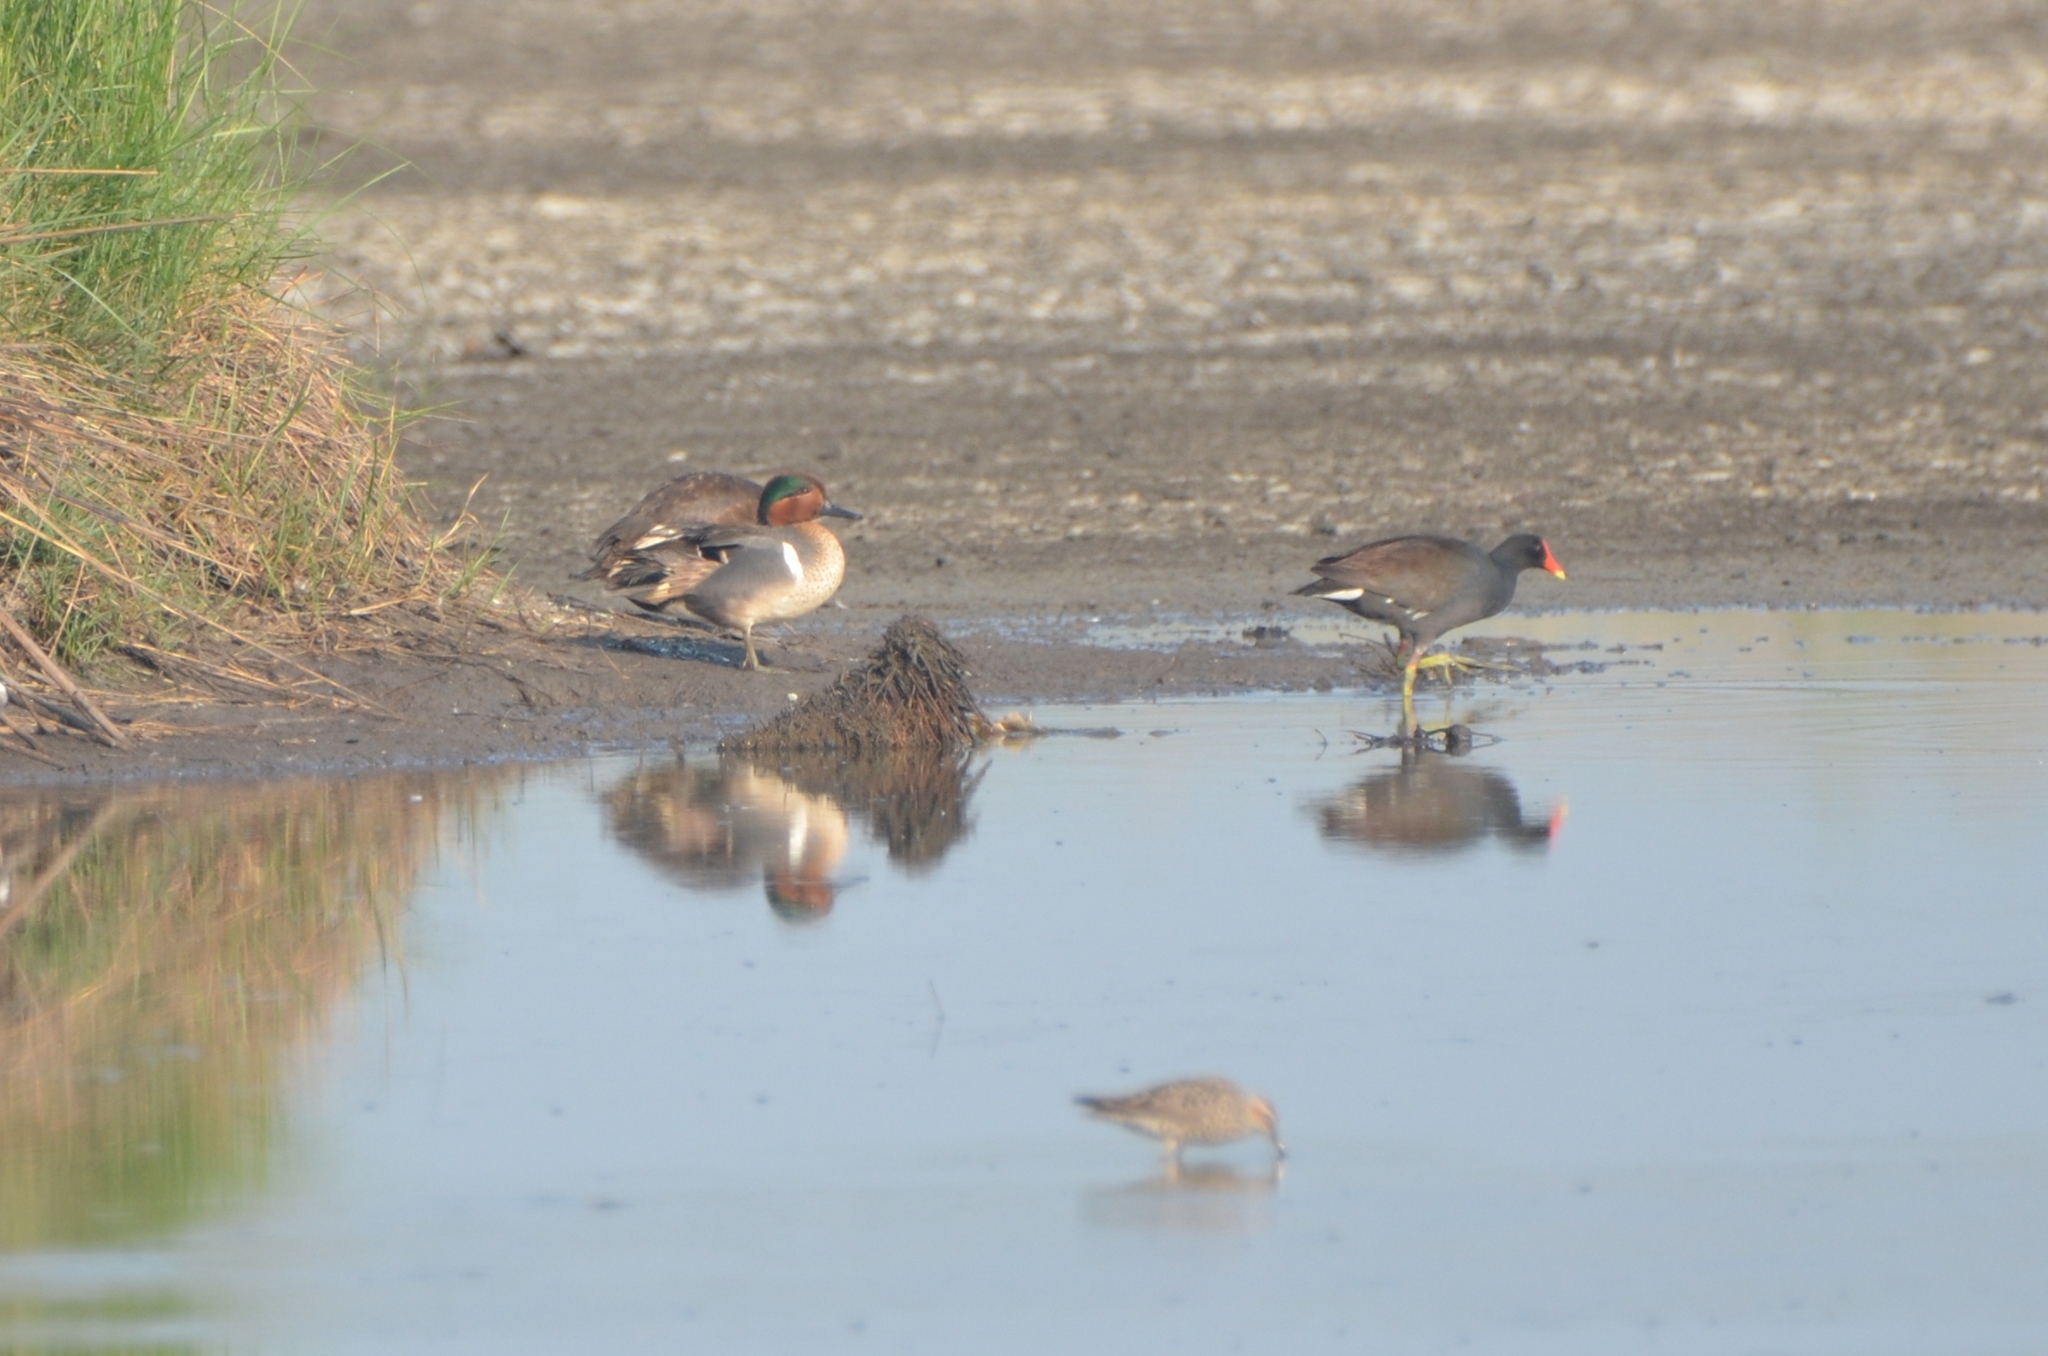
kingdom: Animalia
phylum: Chordata
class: Aves
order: Anseriformes
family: Anatidae
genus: Anas
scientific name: Anas crecca
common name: Eurasian teal
